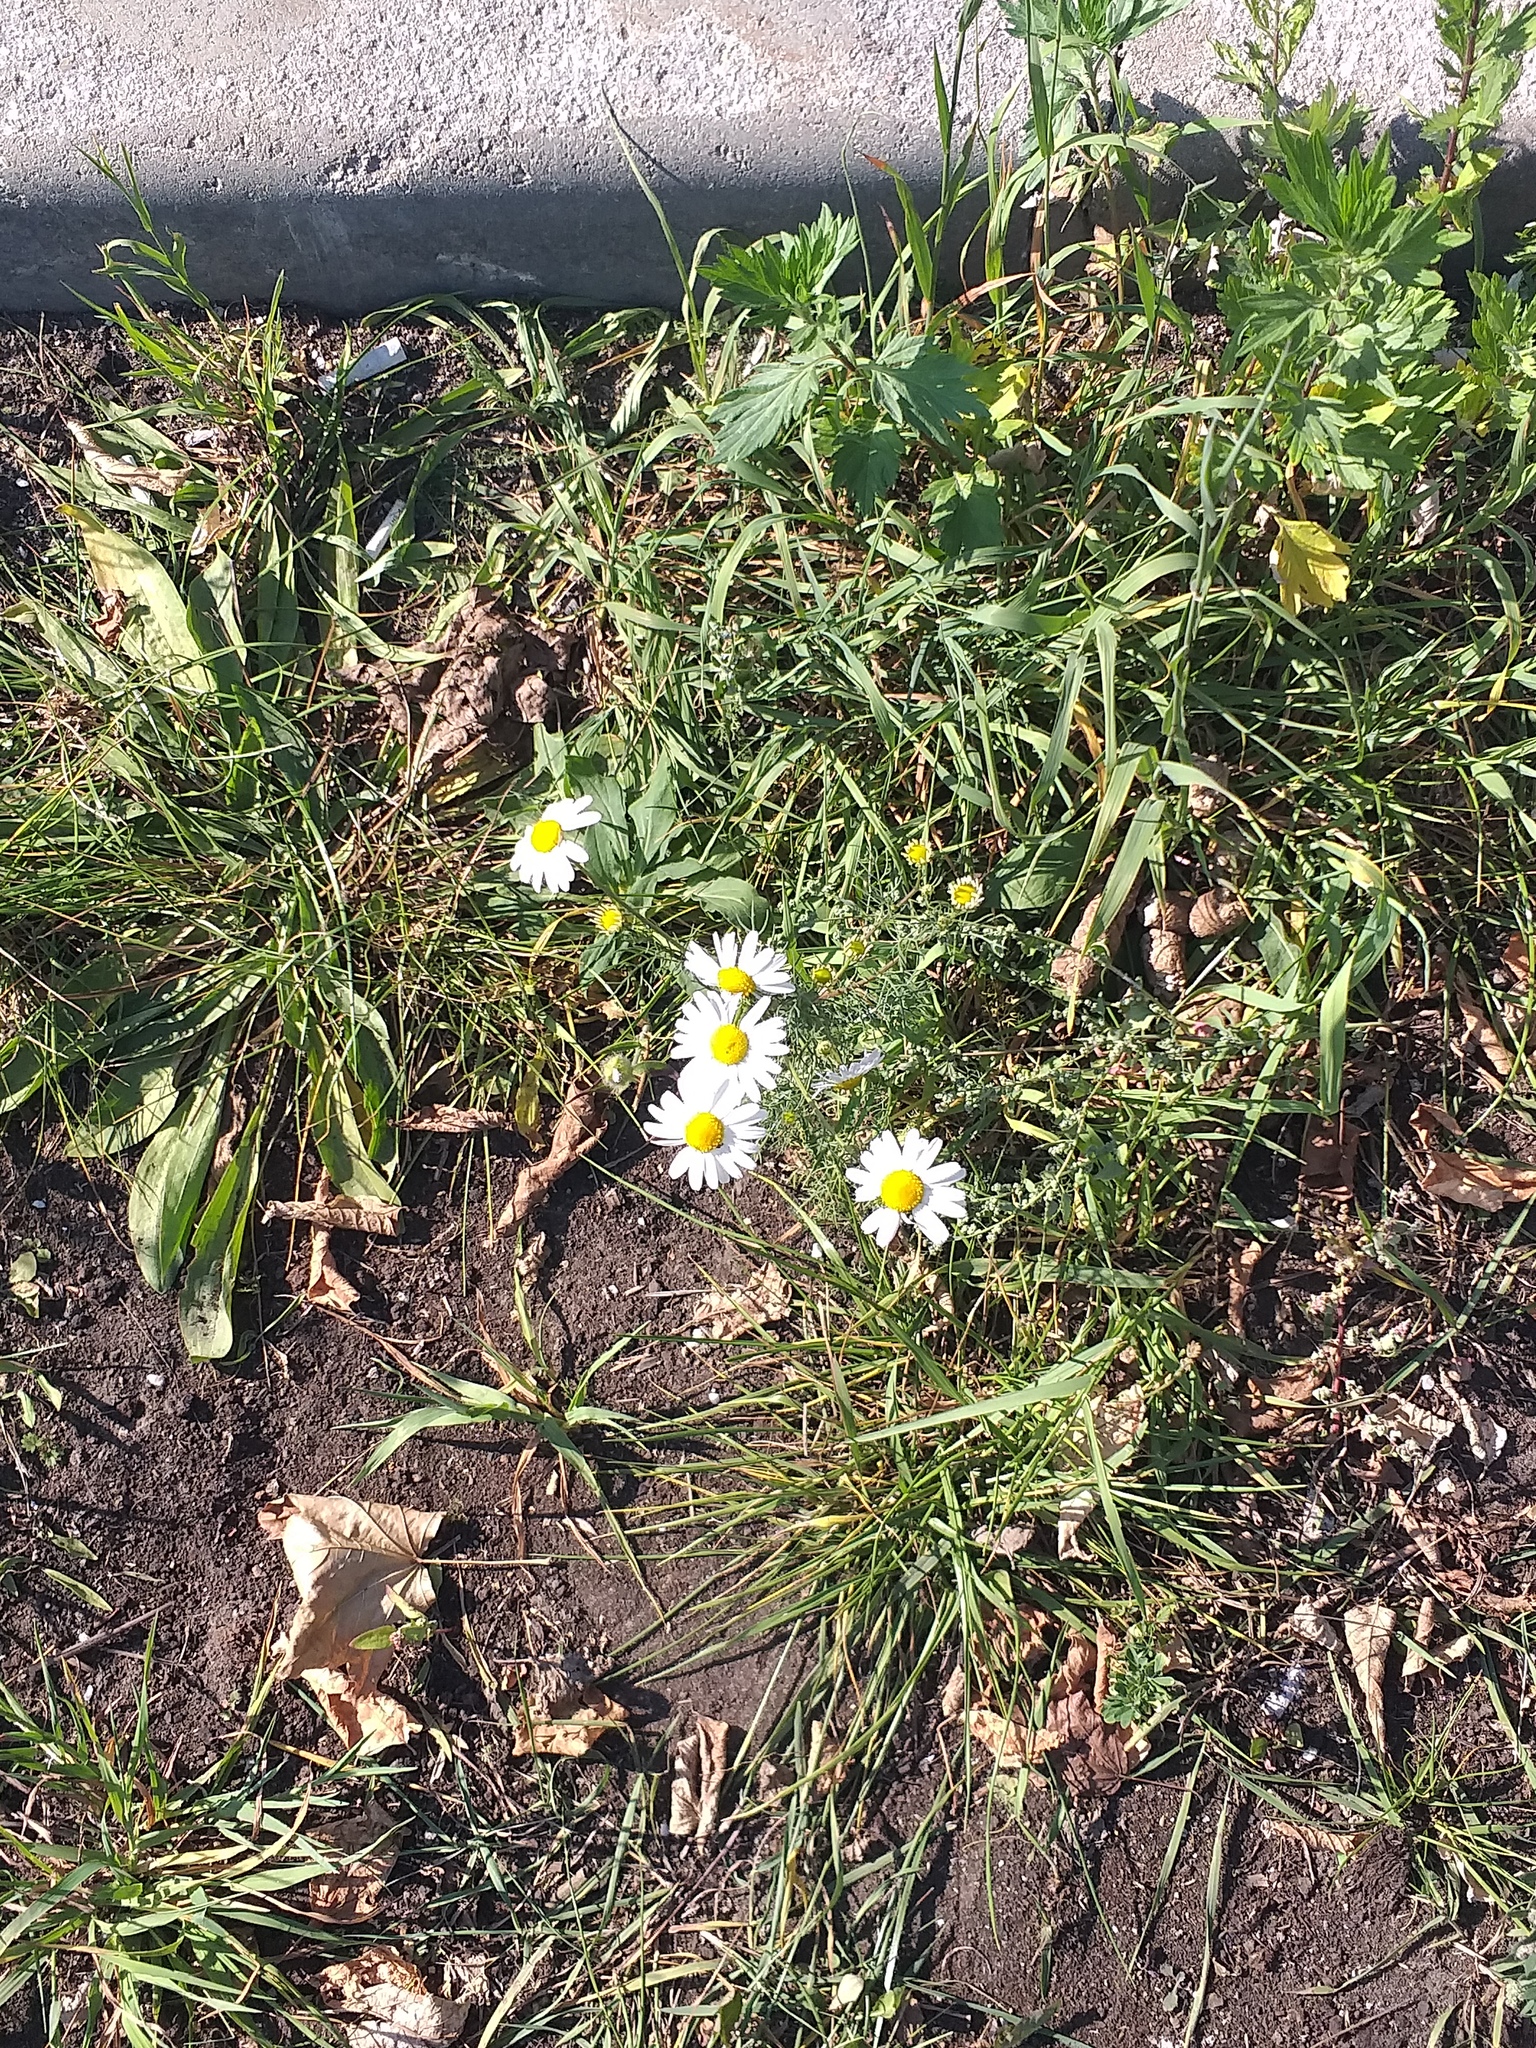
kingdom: Plantae
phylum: Tracheophyta
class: Magnoliopsida
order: Asterales
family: Asteraceae
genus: Tripleurospermum
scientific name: Tripleurospermum inodorum
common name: Scentless mayweed
